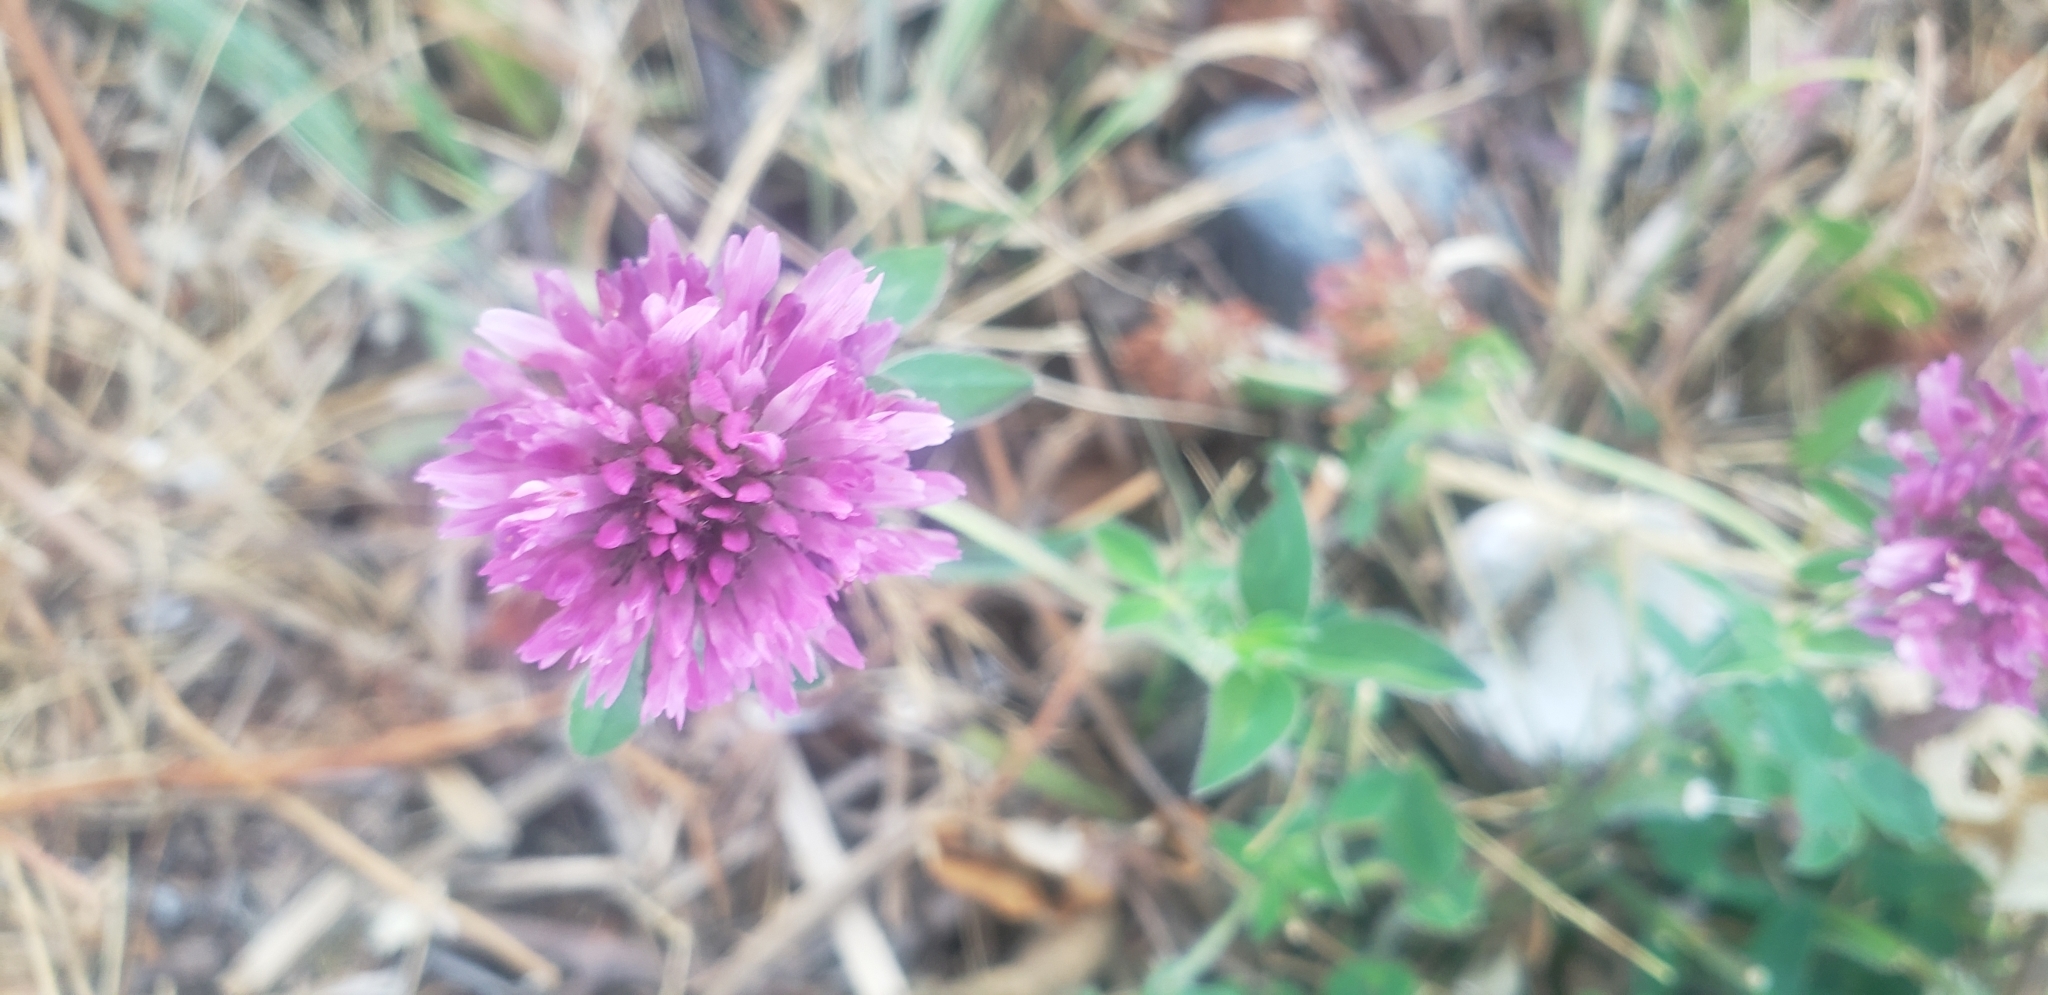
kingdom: Plantae
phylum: Tracheophyta
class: Magnoliopsida
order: Fabales
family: Fabaceae
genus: Trifolium
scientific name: Trifolium pratense
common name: Red clover
